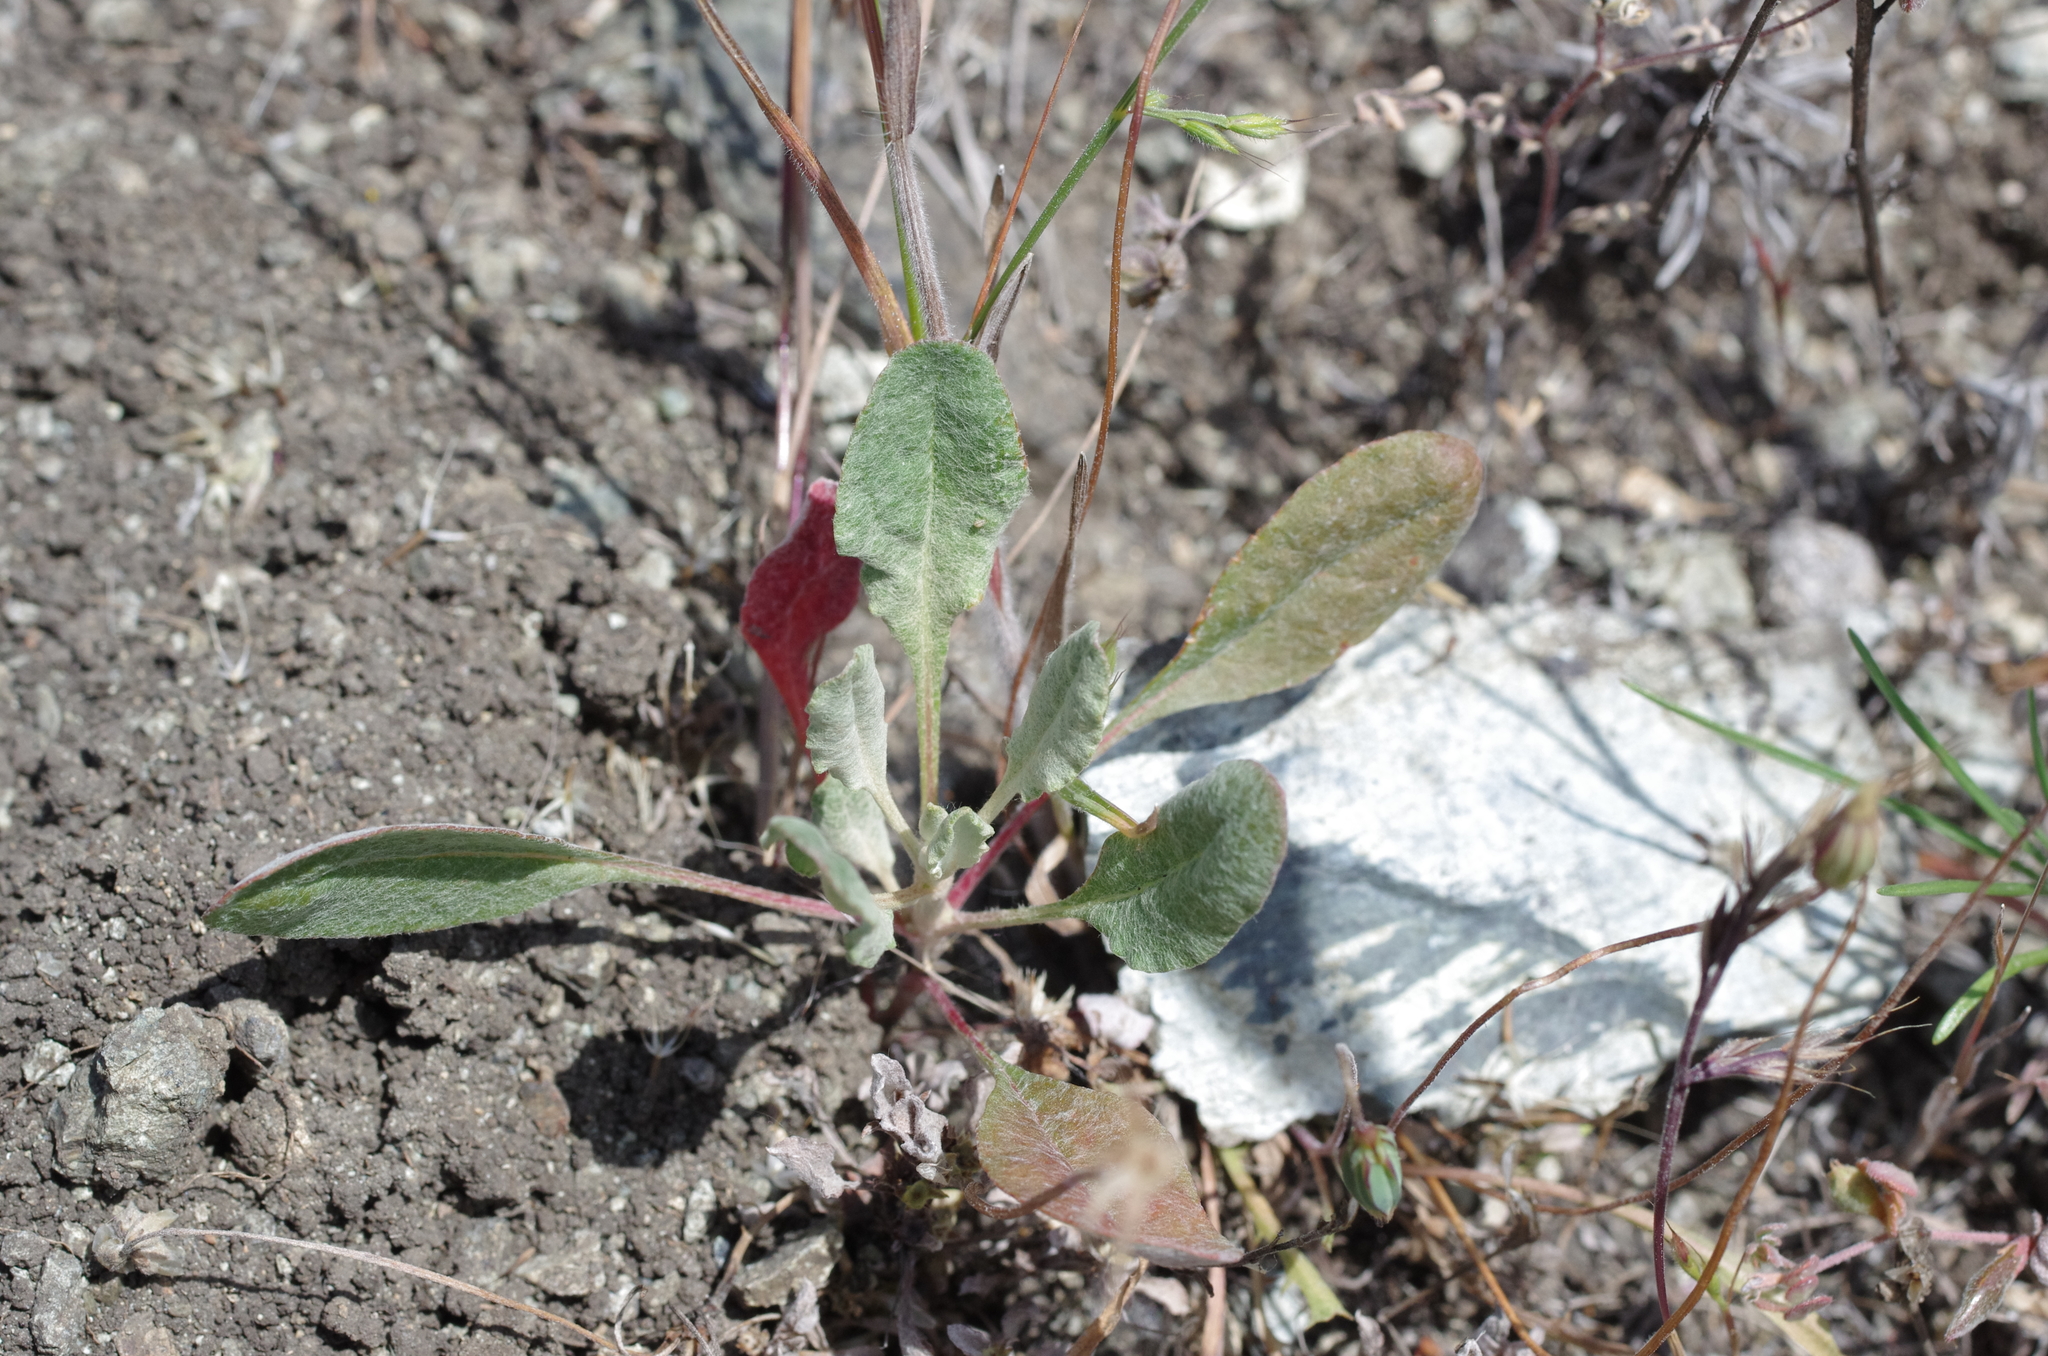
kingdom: Plantae
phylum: Tracheophyta
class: Magnoliopsida
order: Caryophyllales
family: Polygonaceae
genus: Eriogonum
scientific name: Eriogonum nudum
